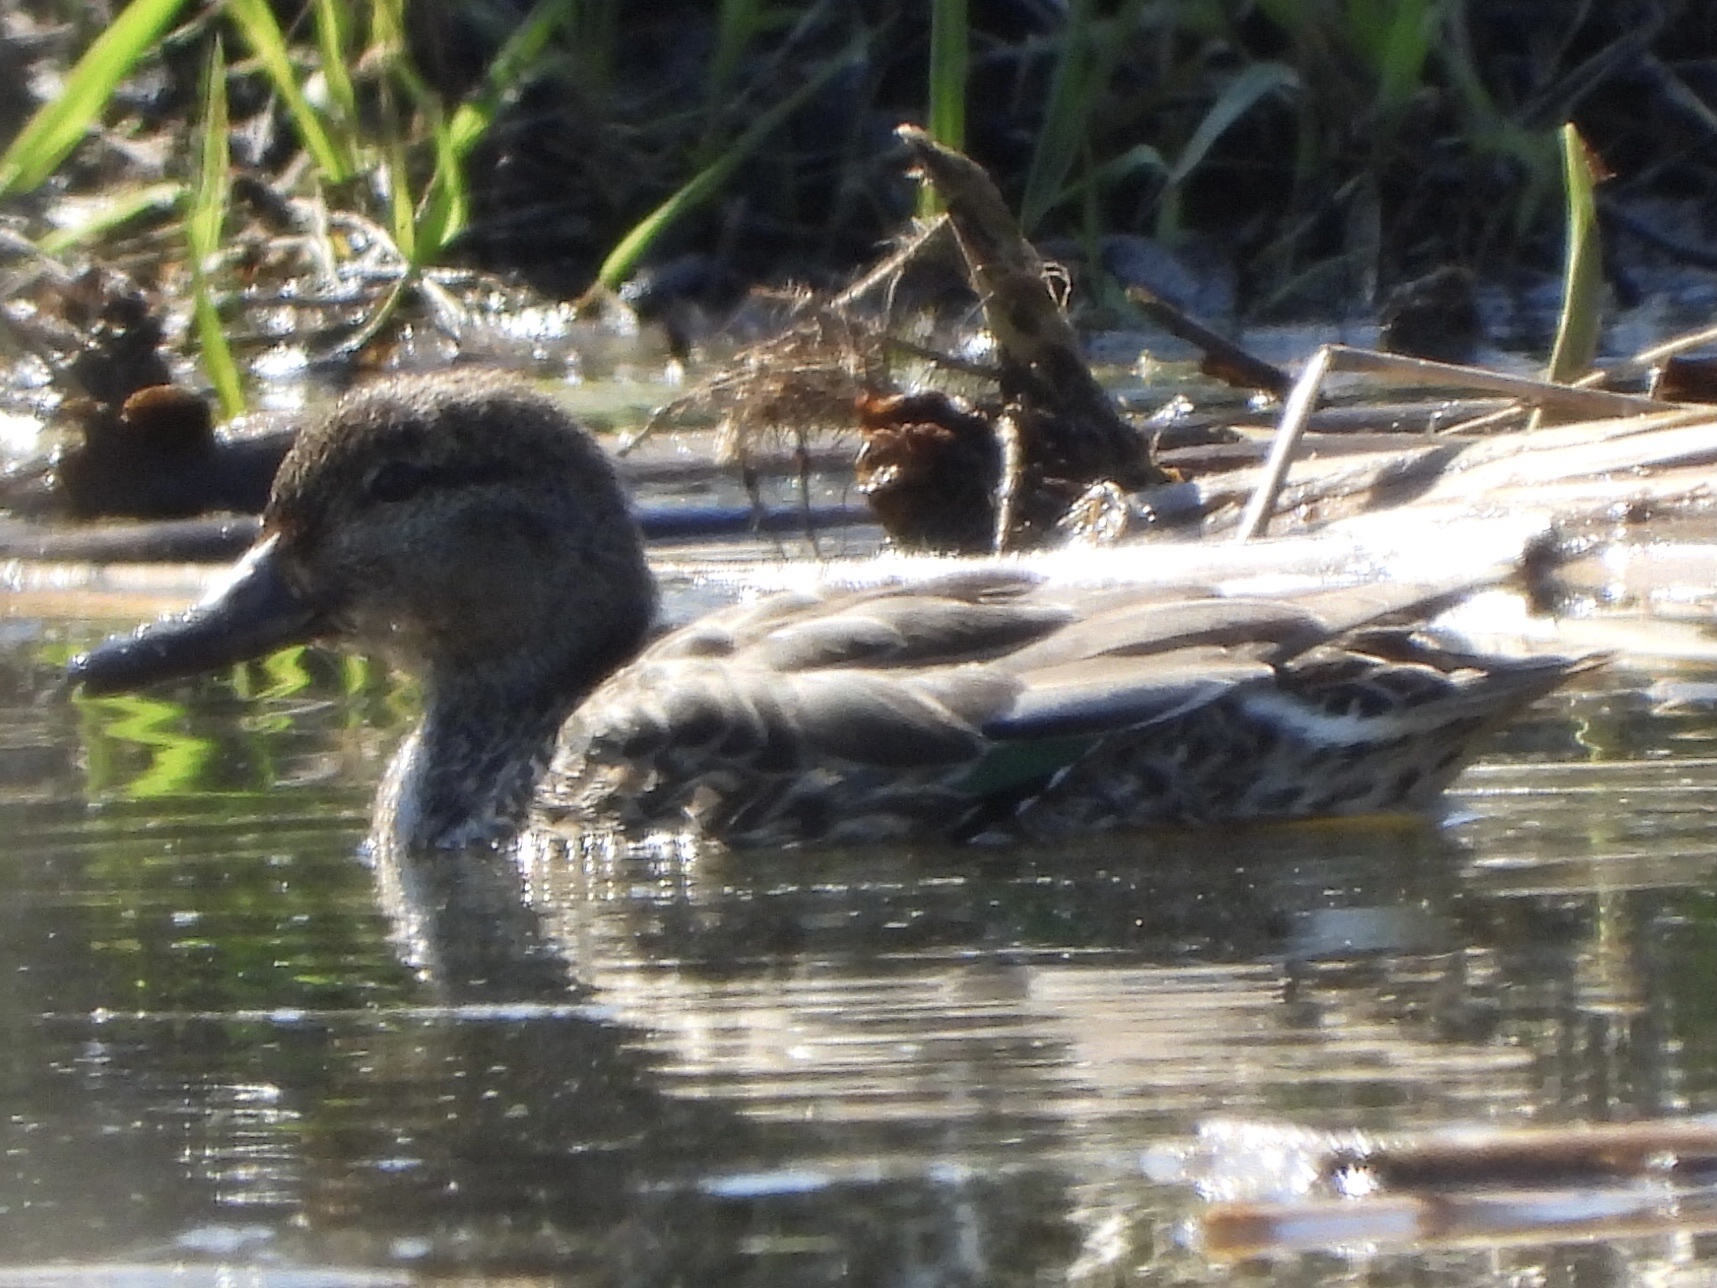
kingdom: Animalia
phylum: Chordata
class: Aves
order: Anseriformes
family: Anatidae
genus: Anas
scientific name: Anas crecca
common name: Eurasian teal
